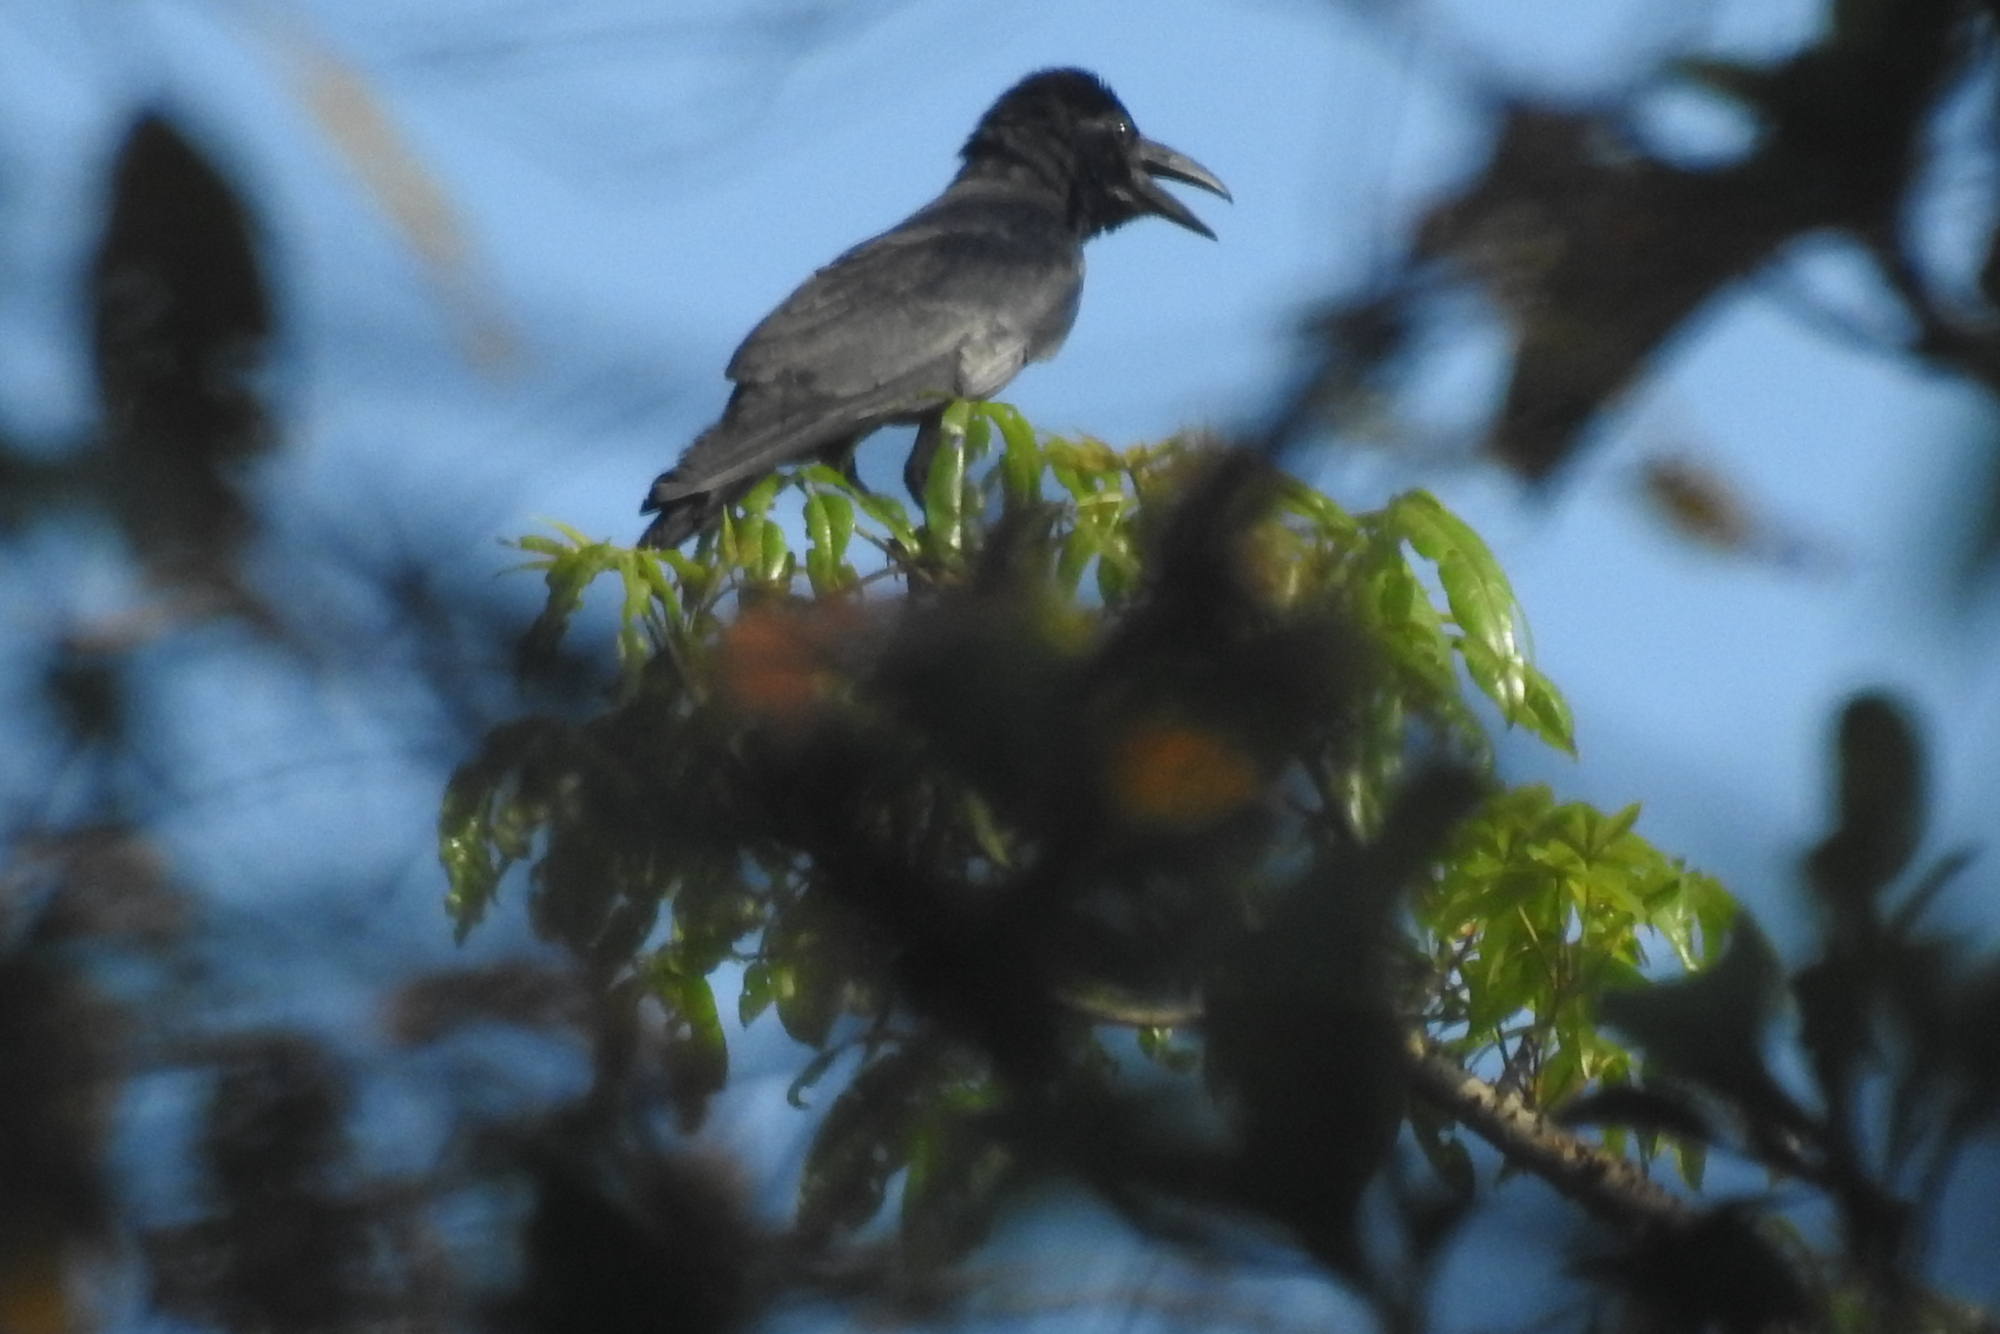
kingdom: Animalia
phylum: Chordata
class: Aves
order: Passeriformes
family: Corvidae
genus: Corvus
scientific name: Corvus macrorhynchos
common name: Large-billed crow
